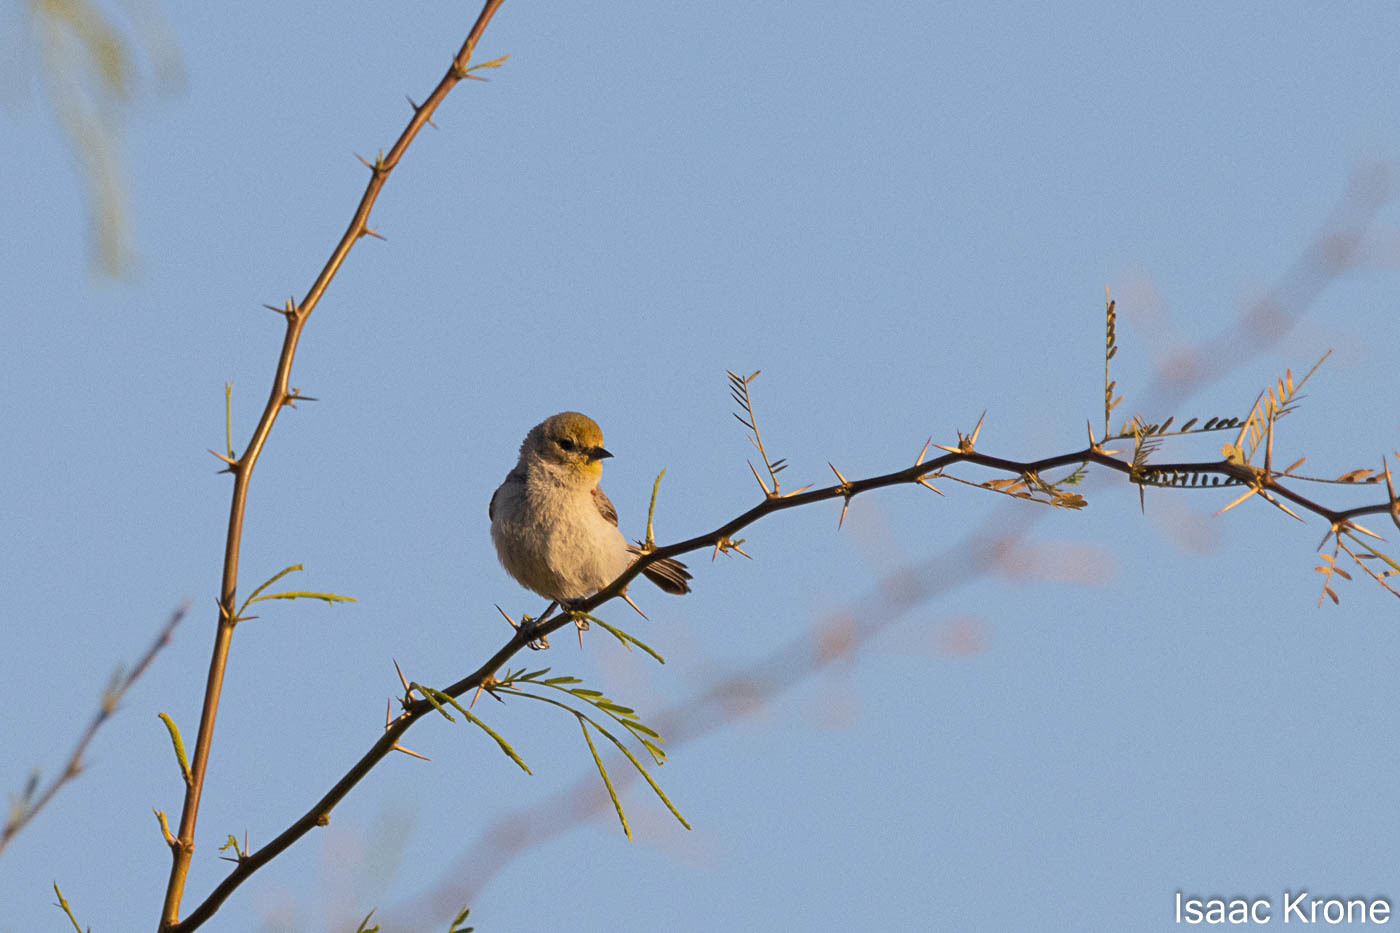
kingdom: Animalia
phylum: Chordata
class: Aves
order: Passeriformes
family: Remizidae
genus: Auriparus
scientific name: Auriparus flaviceps
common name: Verdin
